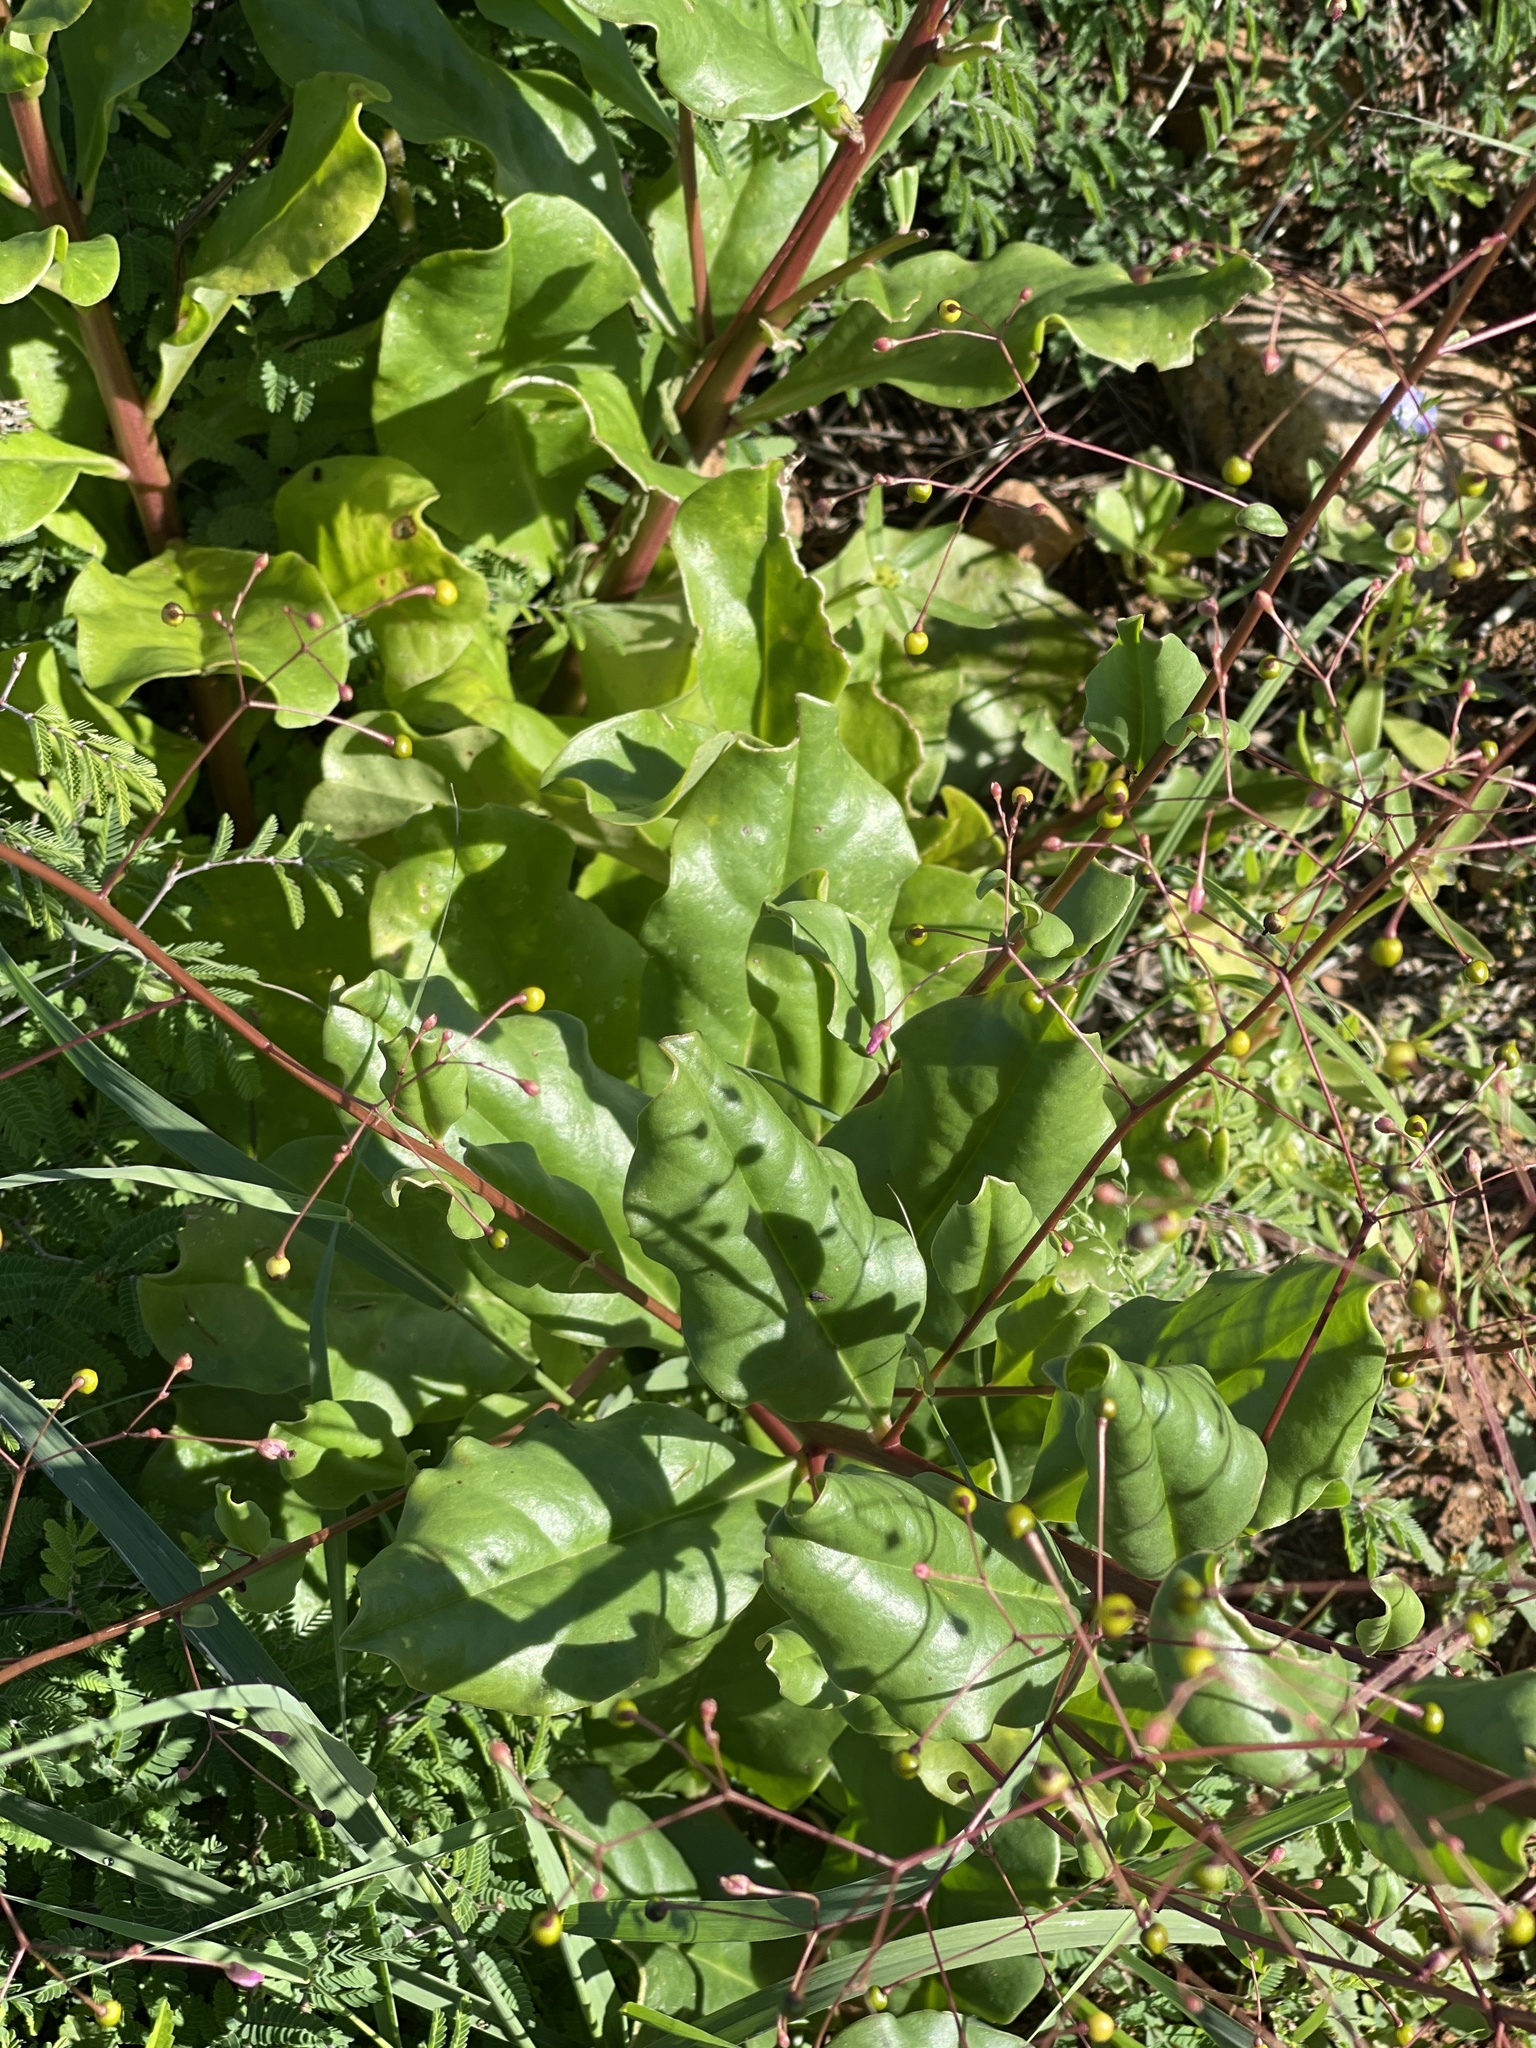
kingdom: Plantae
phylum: Tracheophyta
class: Magnoliopsida
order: Caryophyllales
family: Talinaceae
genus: Talinum
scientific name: Talinum paniculatum
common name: Jewels of opar
